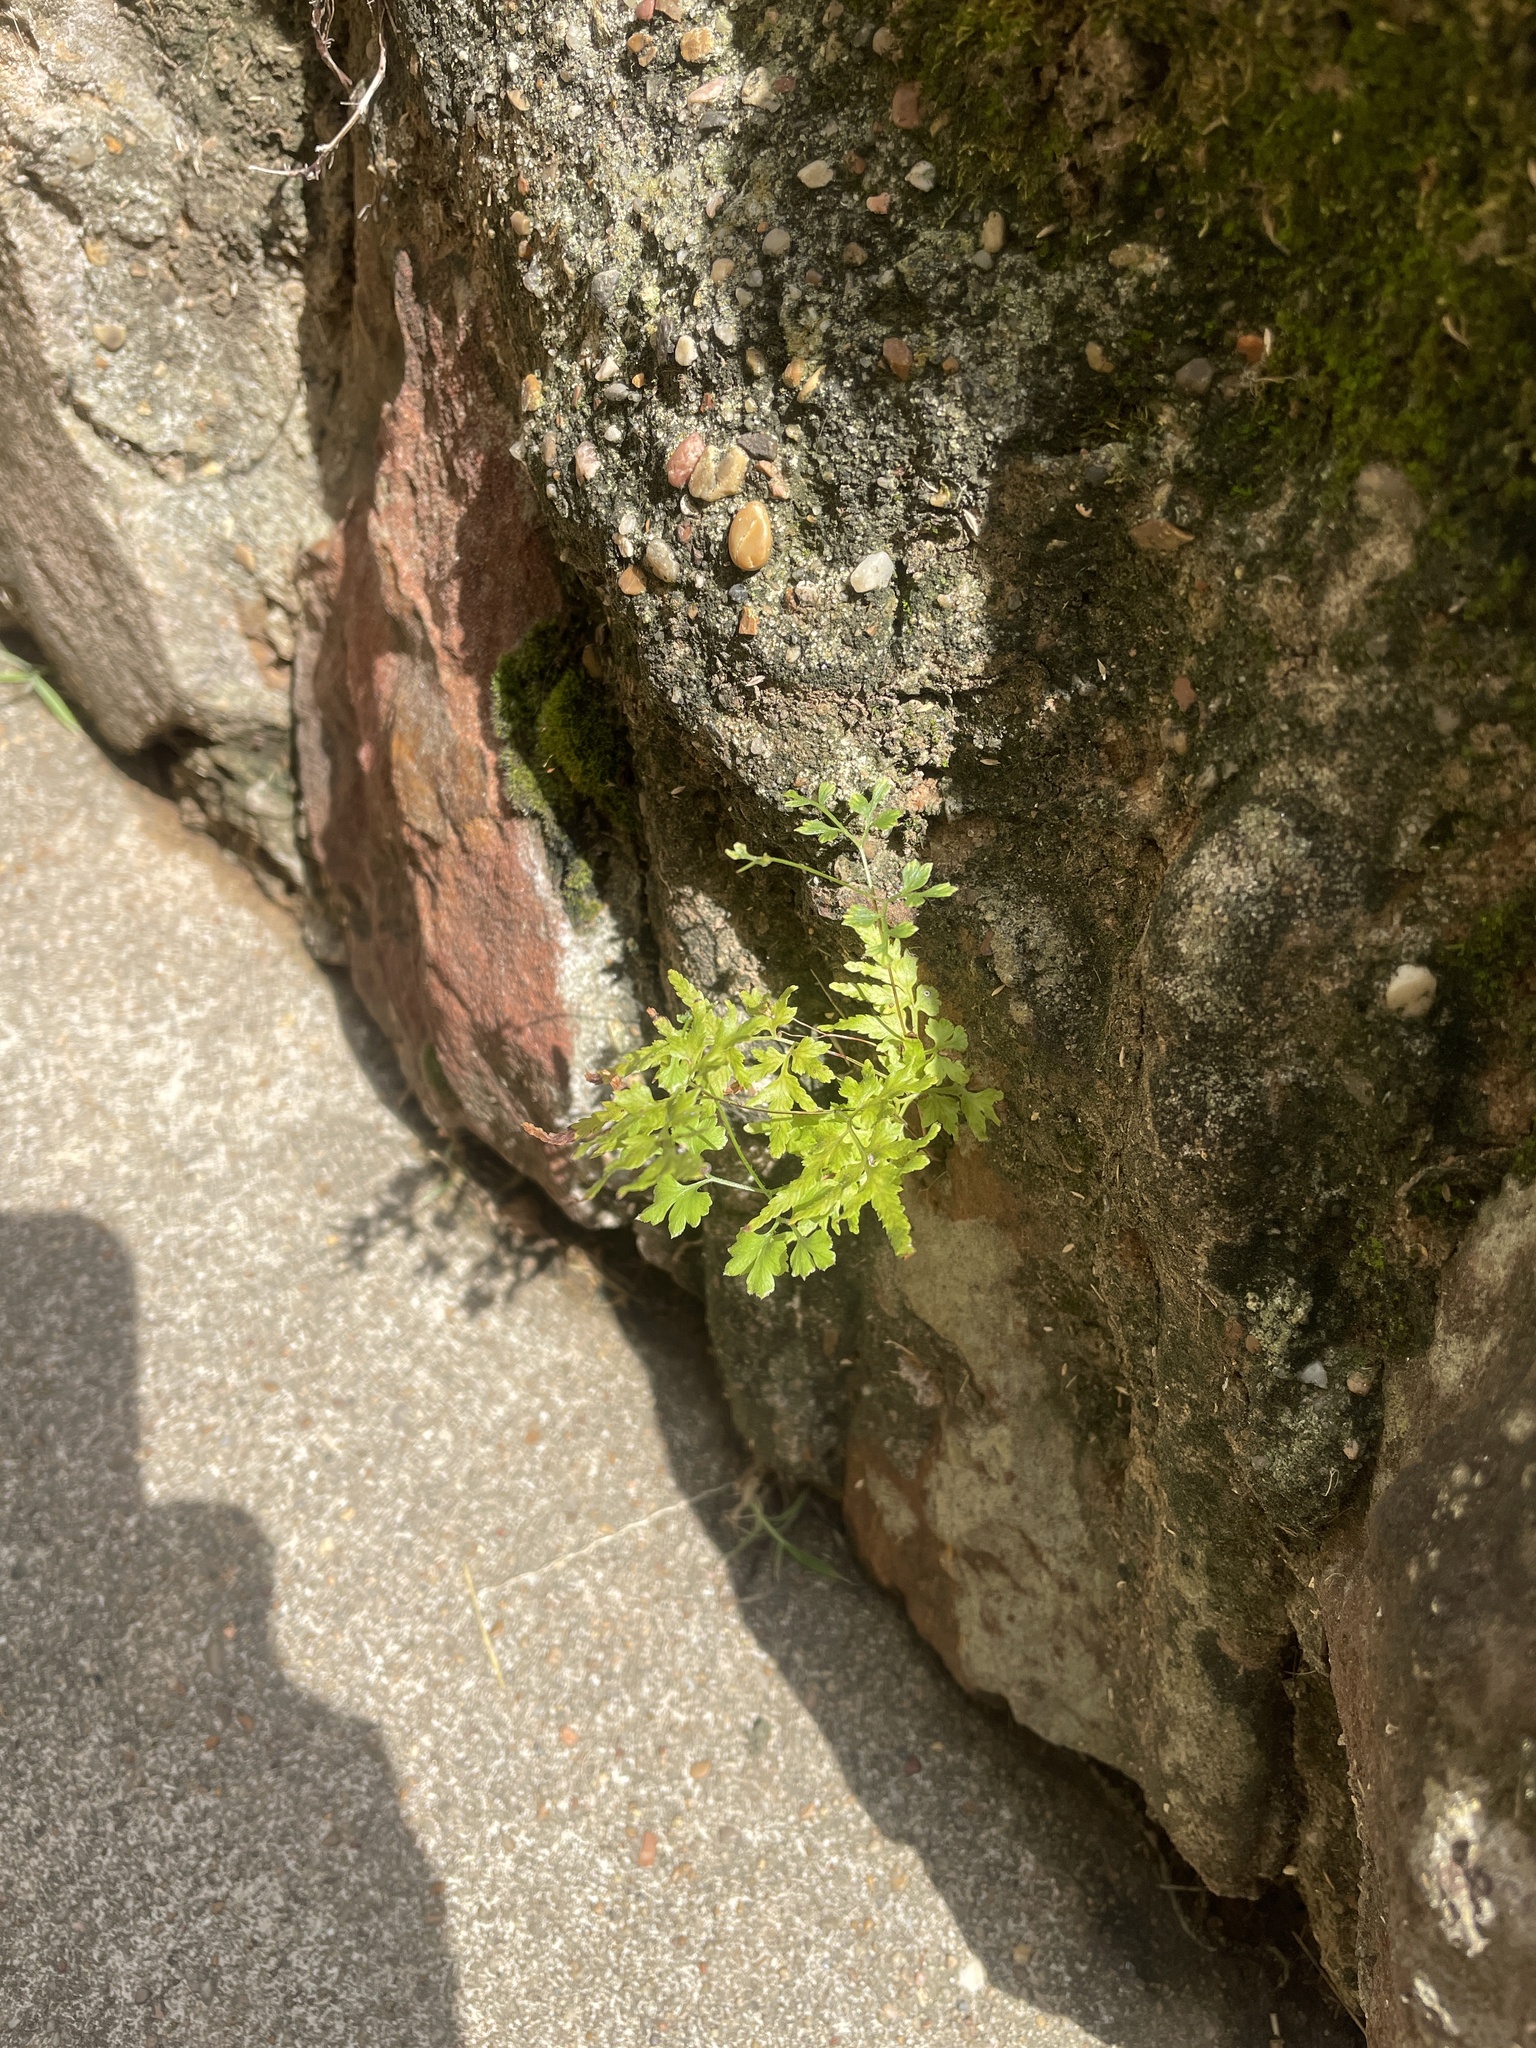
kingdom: Plantae
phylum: Tracheophyta
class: Polypodiopsida
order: Schizaeales
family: Lygodiaceae
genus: Lygodium
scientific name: Lygodium japonicum
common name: Japanese climbing fern
